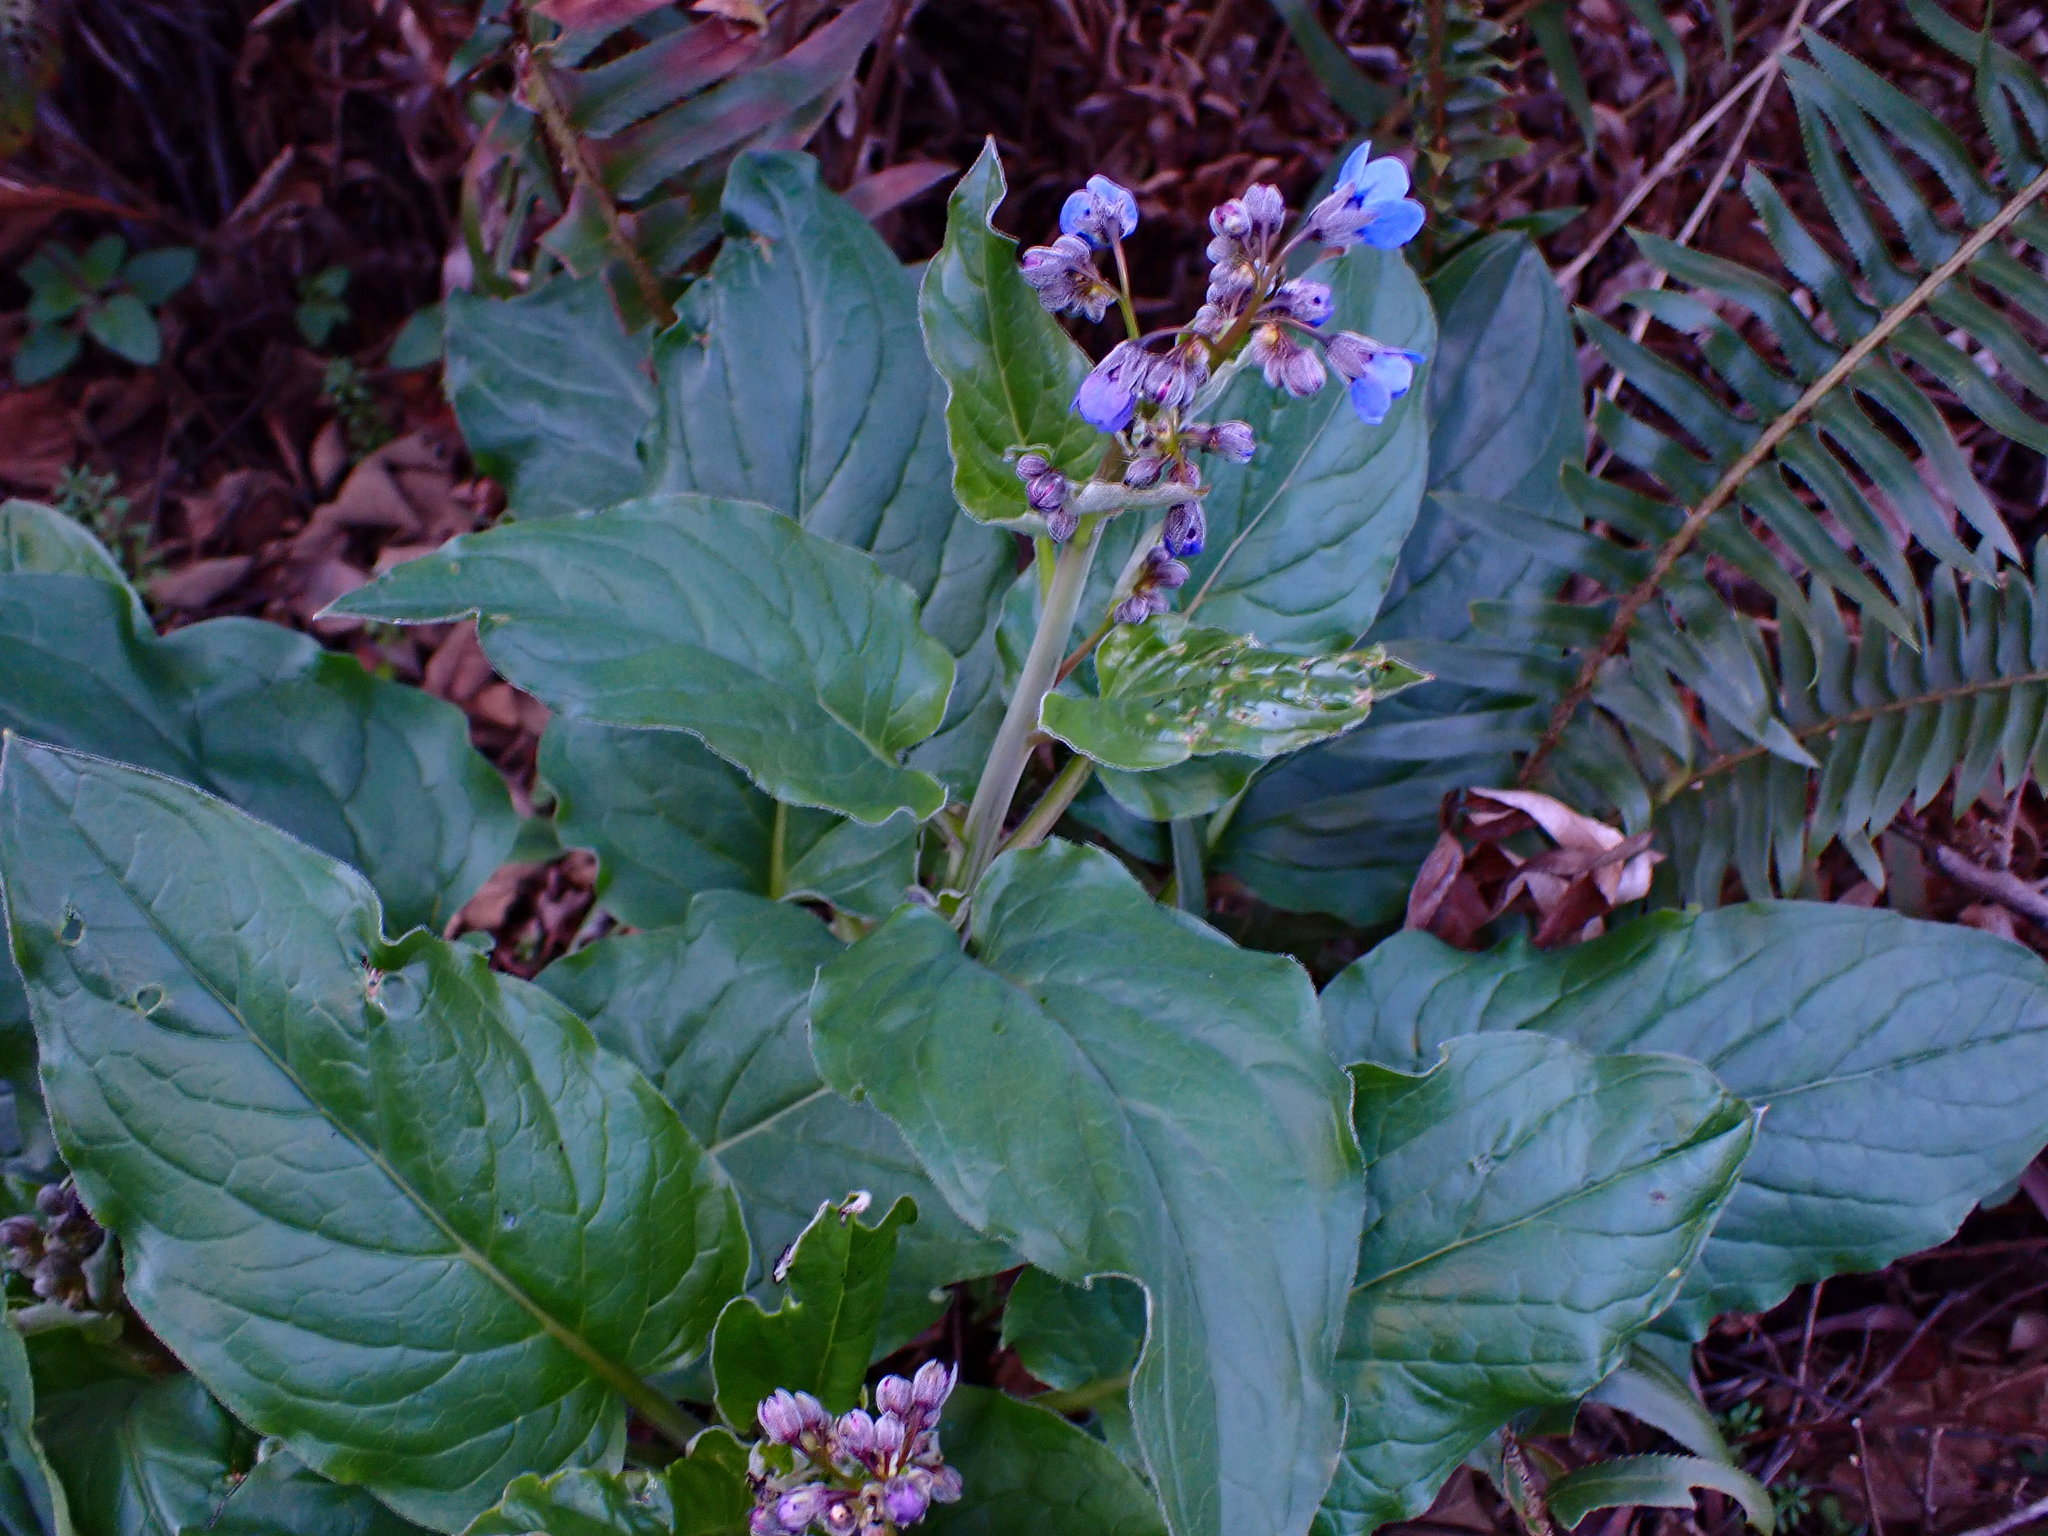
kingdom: Plantae
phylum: Tracheophyta
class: Magnoliopsida
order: Boraginales
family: Boraginaceae
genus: Adelinia
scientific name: Adelinia grande
